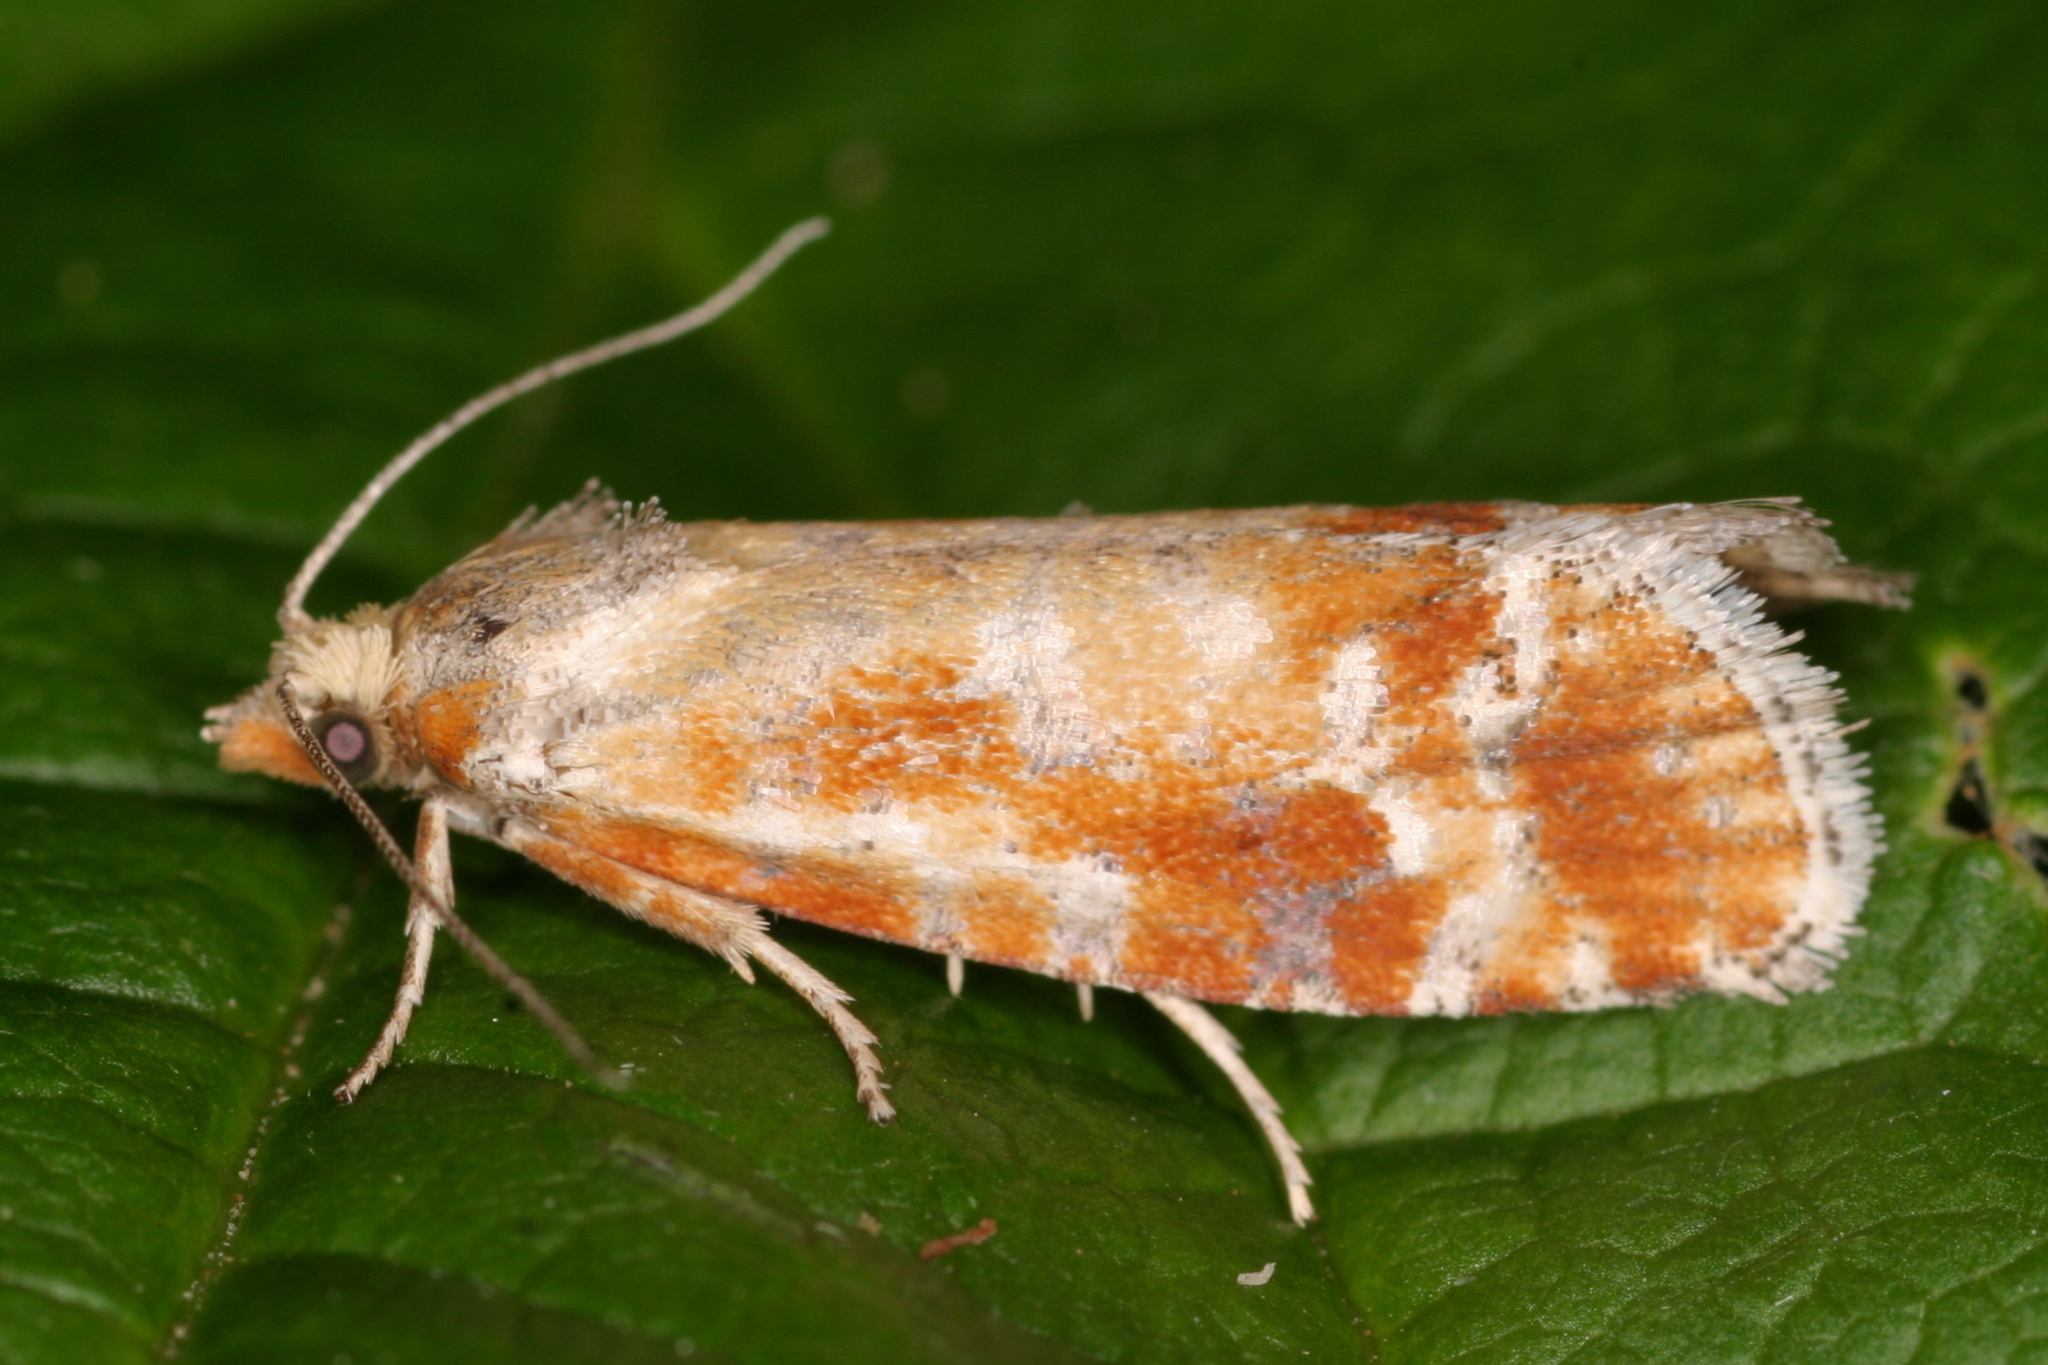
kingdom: Animalia
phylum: Arthropoda
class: Insecta
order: Lepidoptera
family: Tortricidae
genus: Rhyacionia
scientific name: Rhyacionia buoliana
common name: European pine shoot moth
